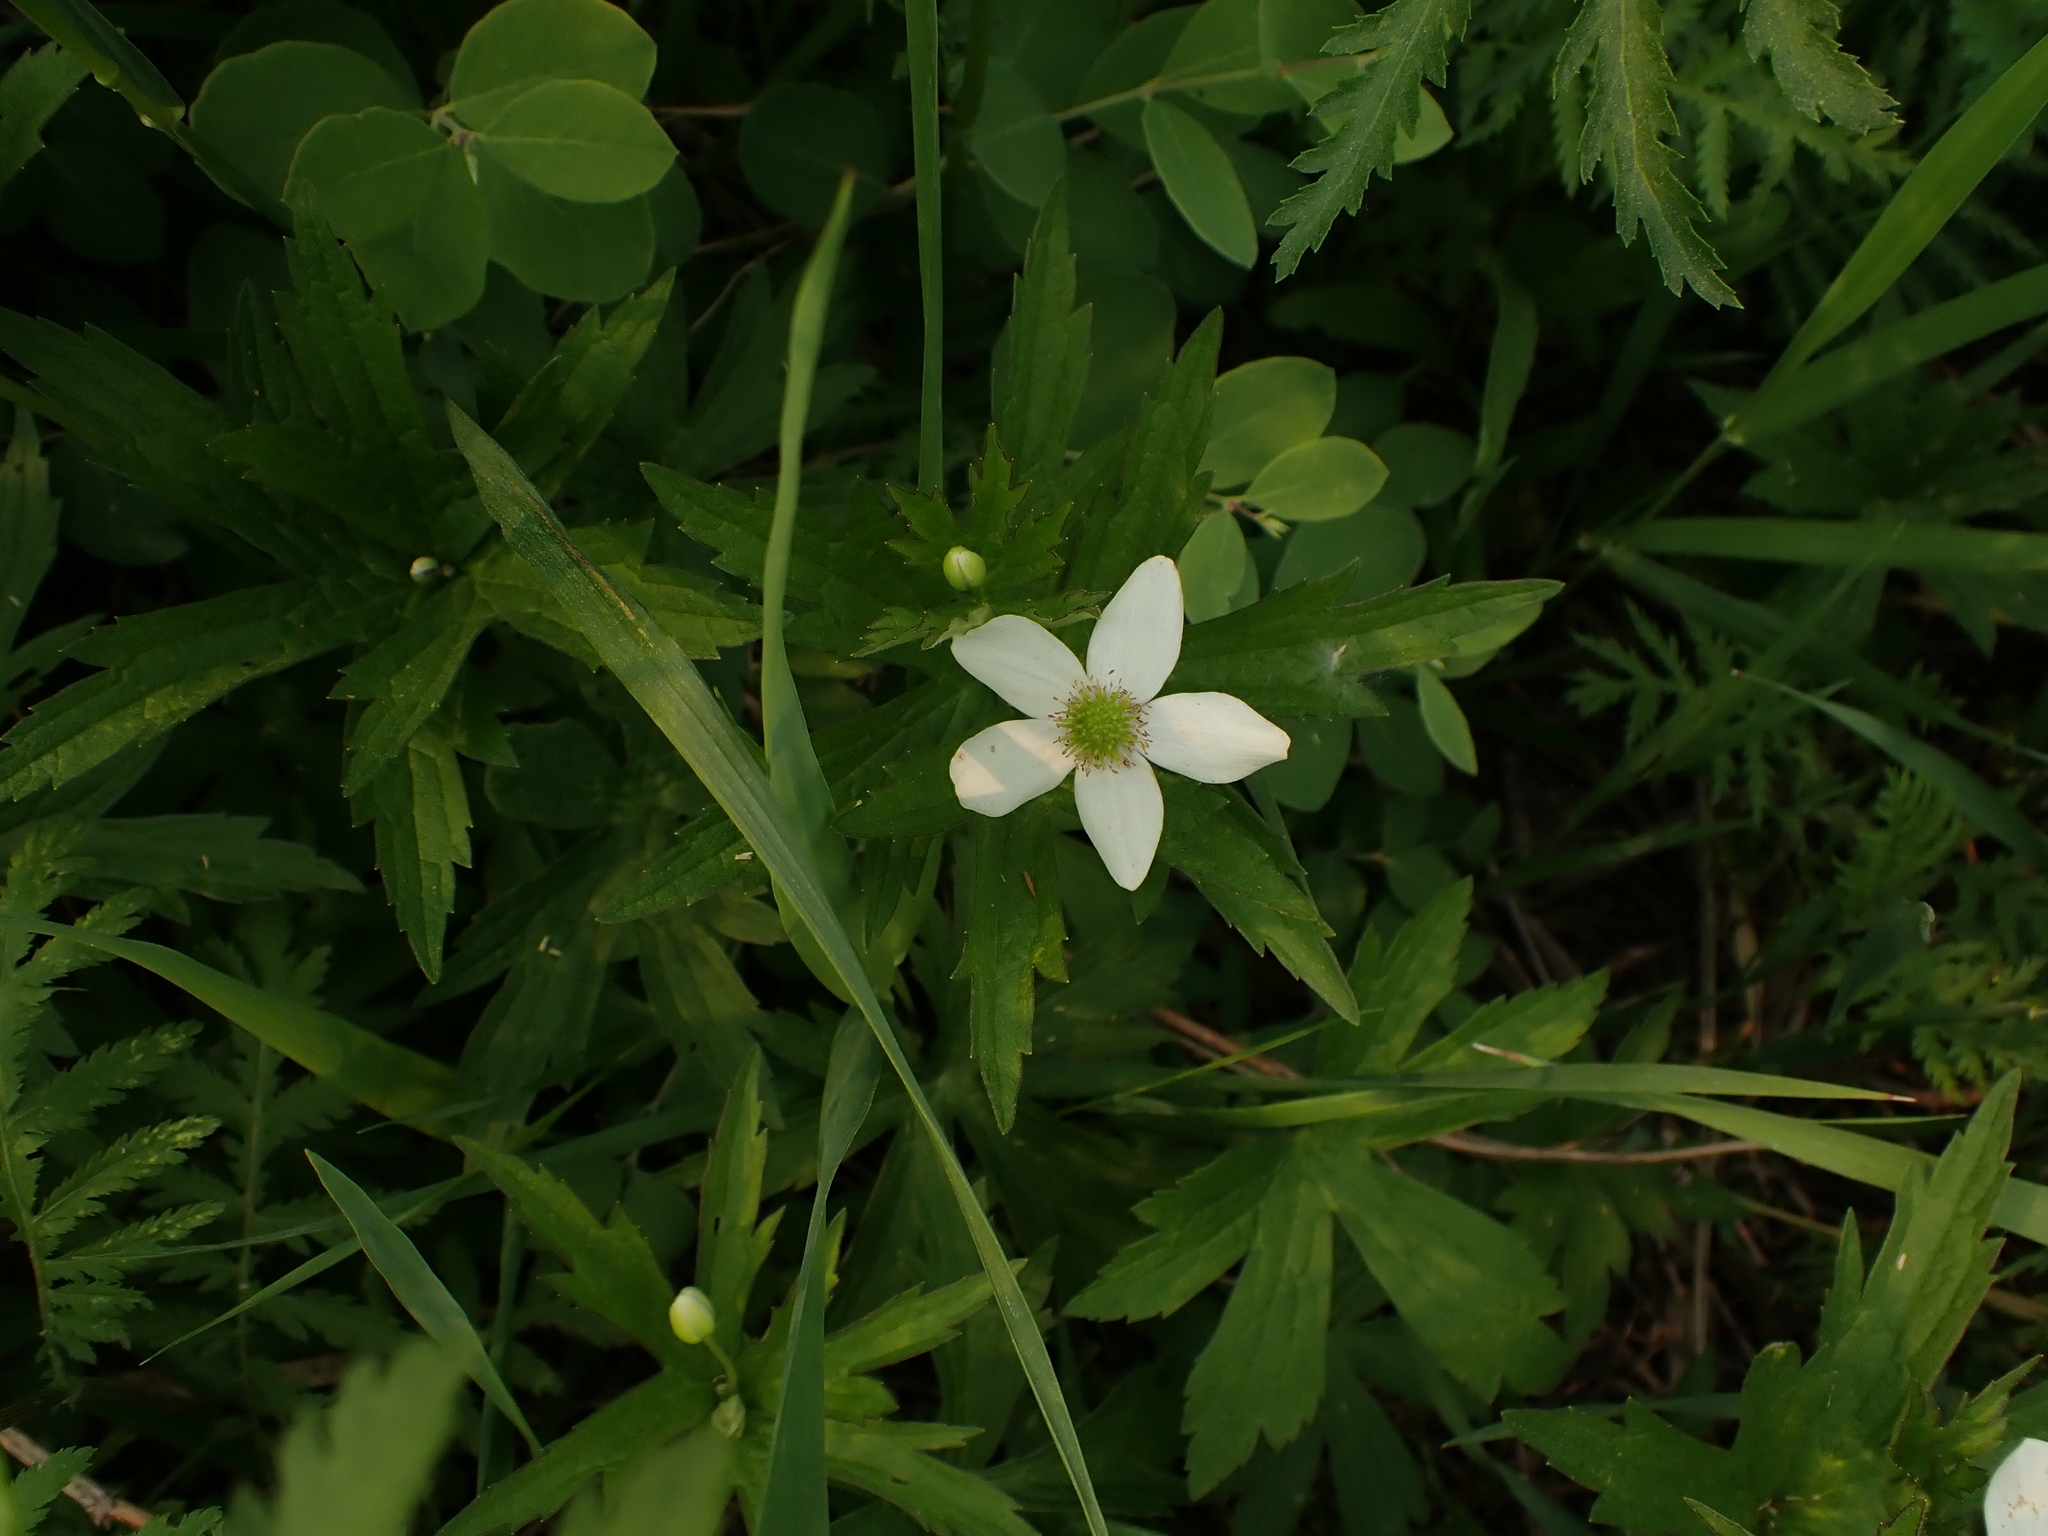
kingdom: Plantae
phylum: Tracheophyta
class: Magnoliopsida
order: Ranunculales
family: Ranunculaceae
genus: Anemonastrum
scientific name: Anemonastrum canadense
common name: Canada anemone
